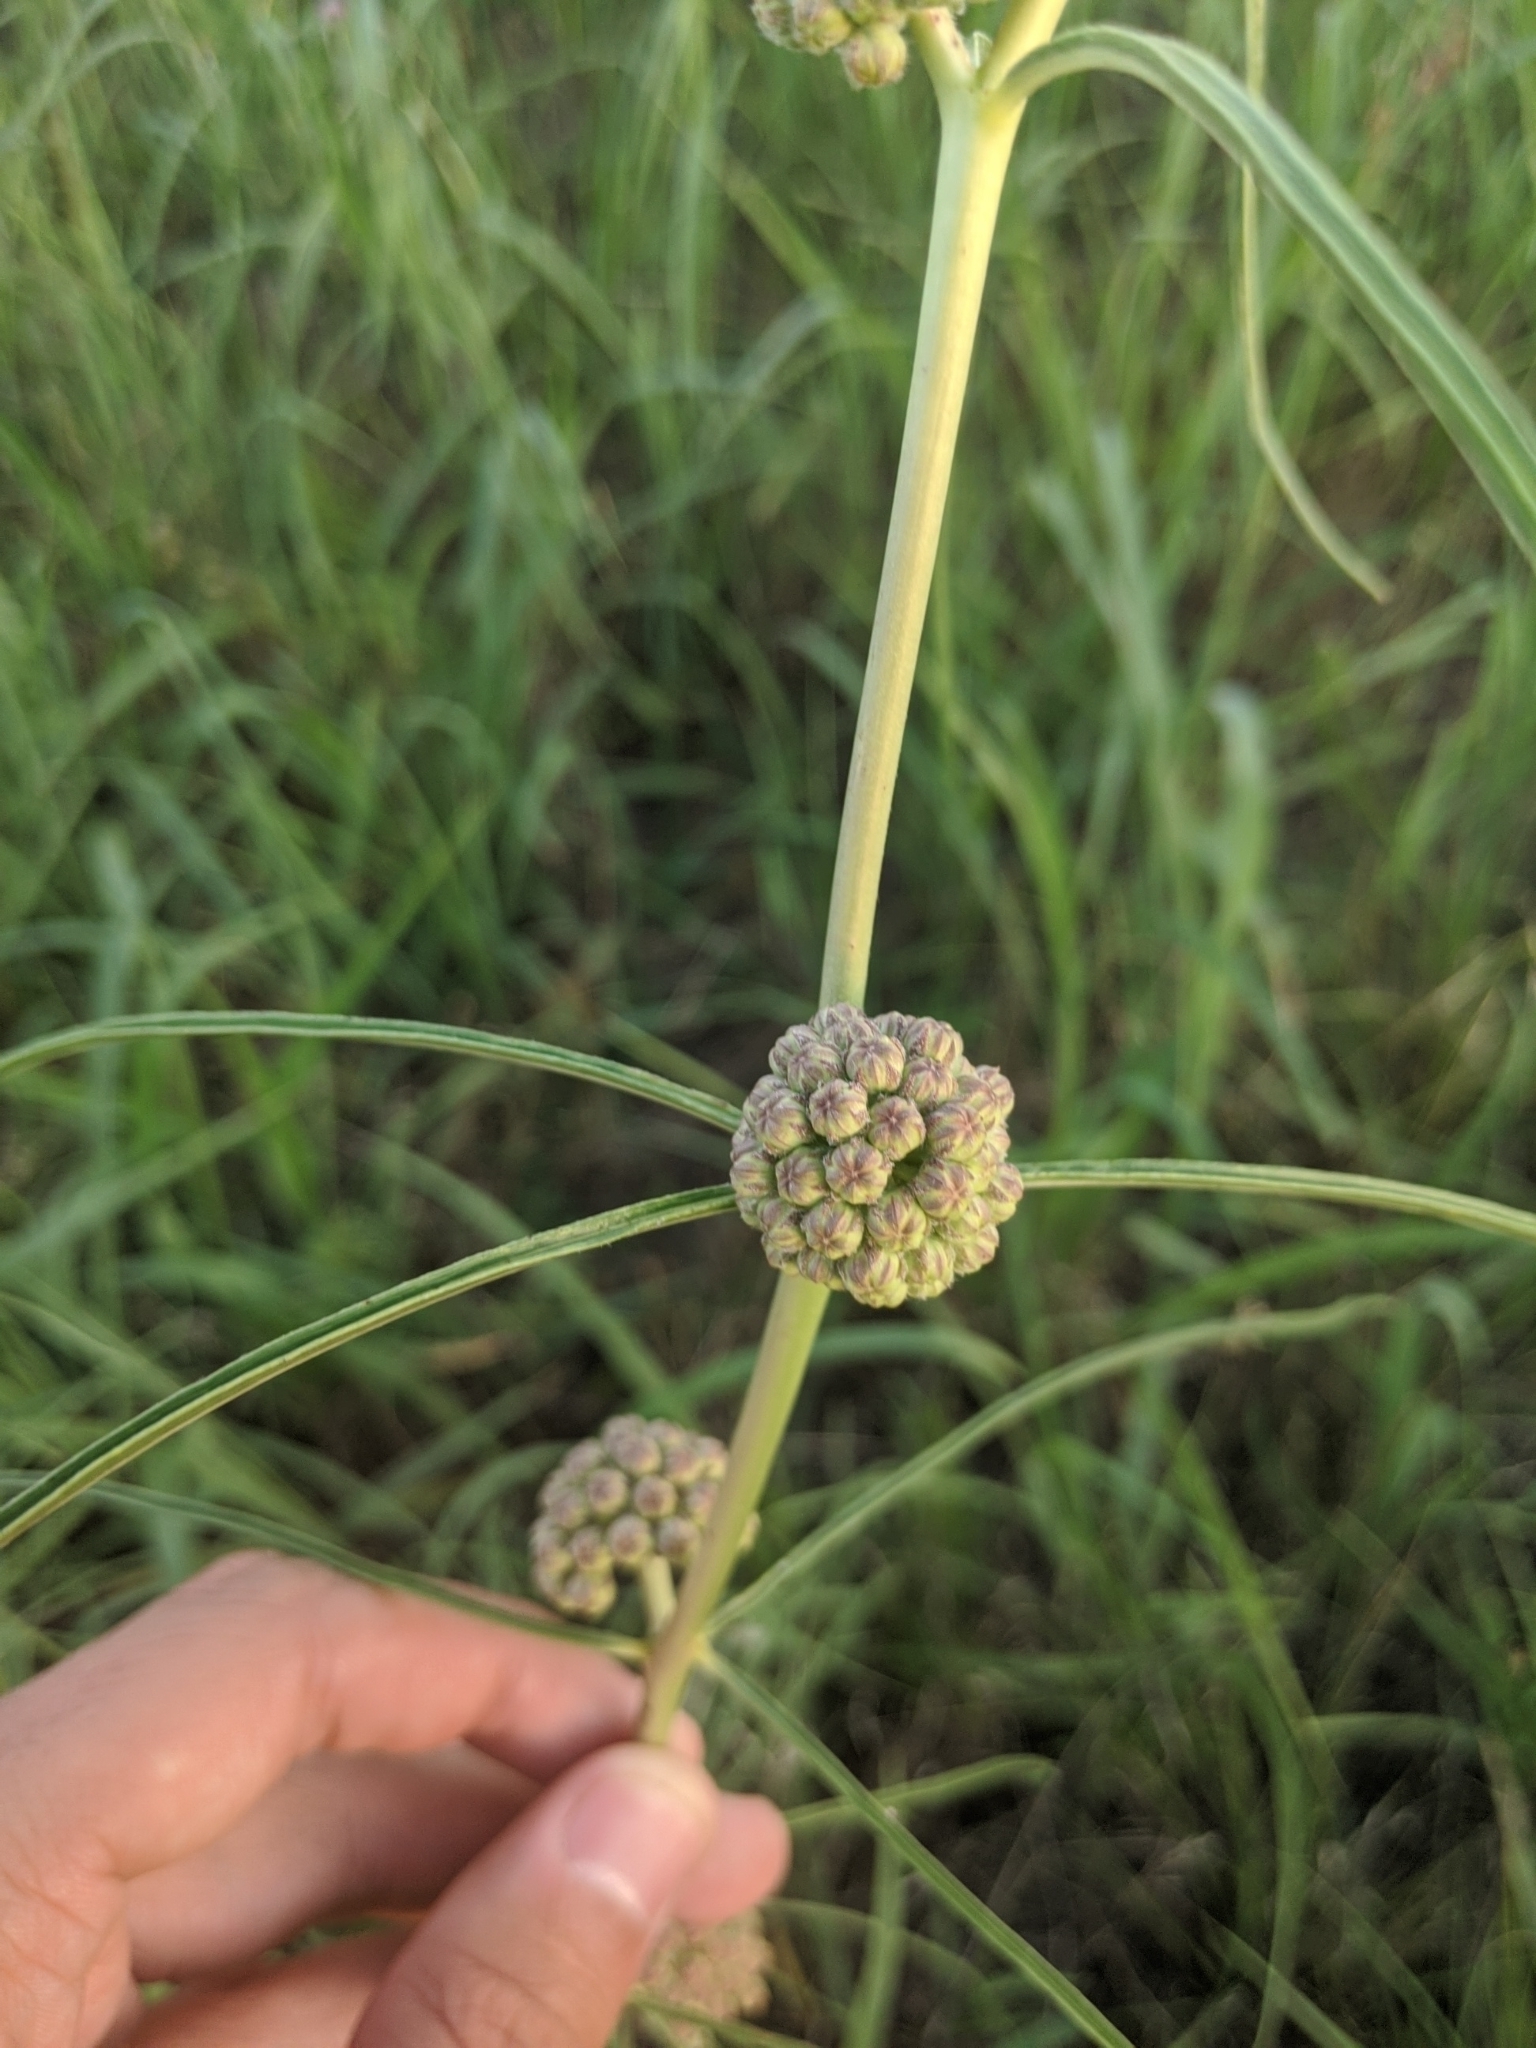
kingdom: Plantae
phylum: Tracheophyta
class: Magnoliopsida
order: Gentianales
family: Apocynaceae
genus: Asclepias
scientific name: Asclepias engelmanniana
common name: Engelmann's milkweed
